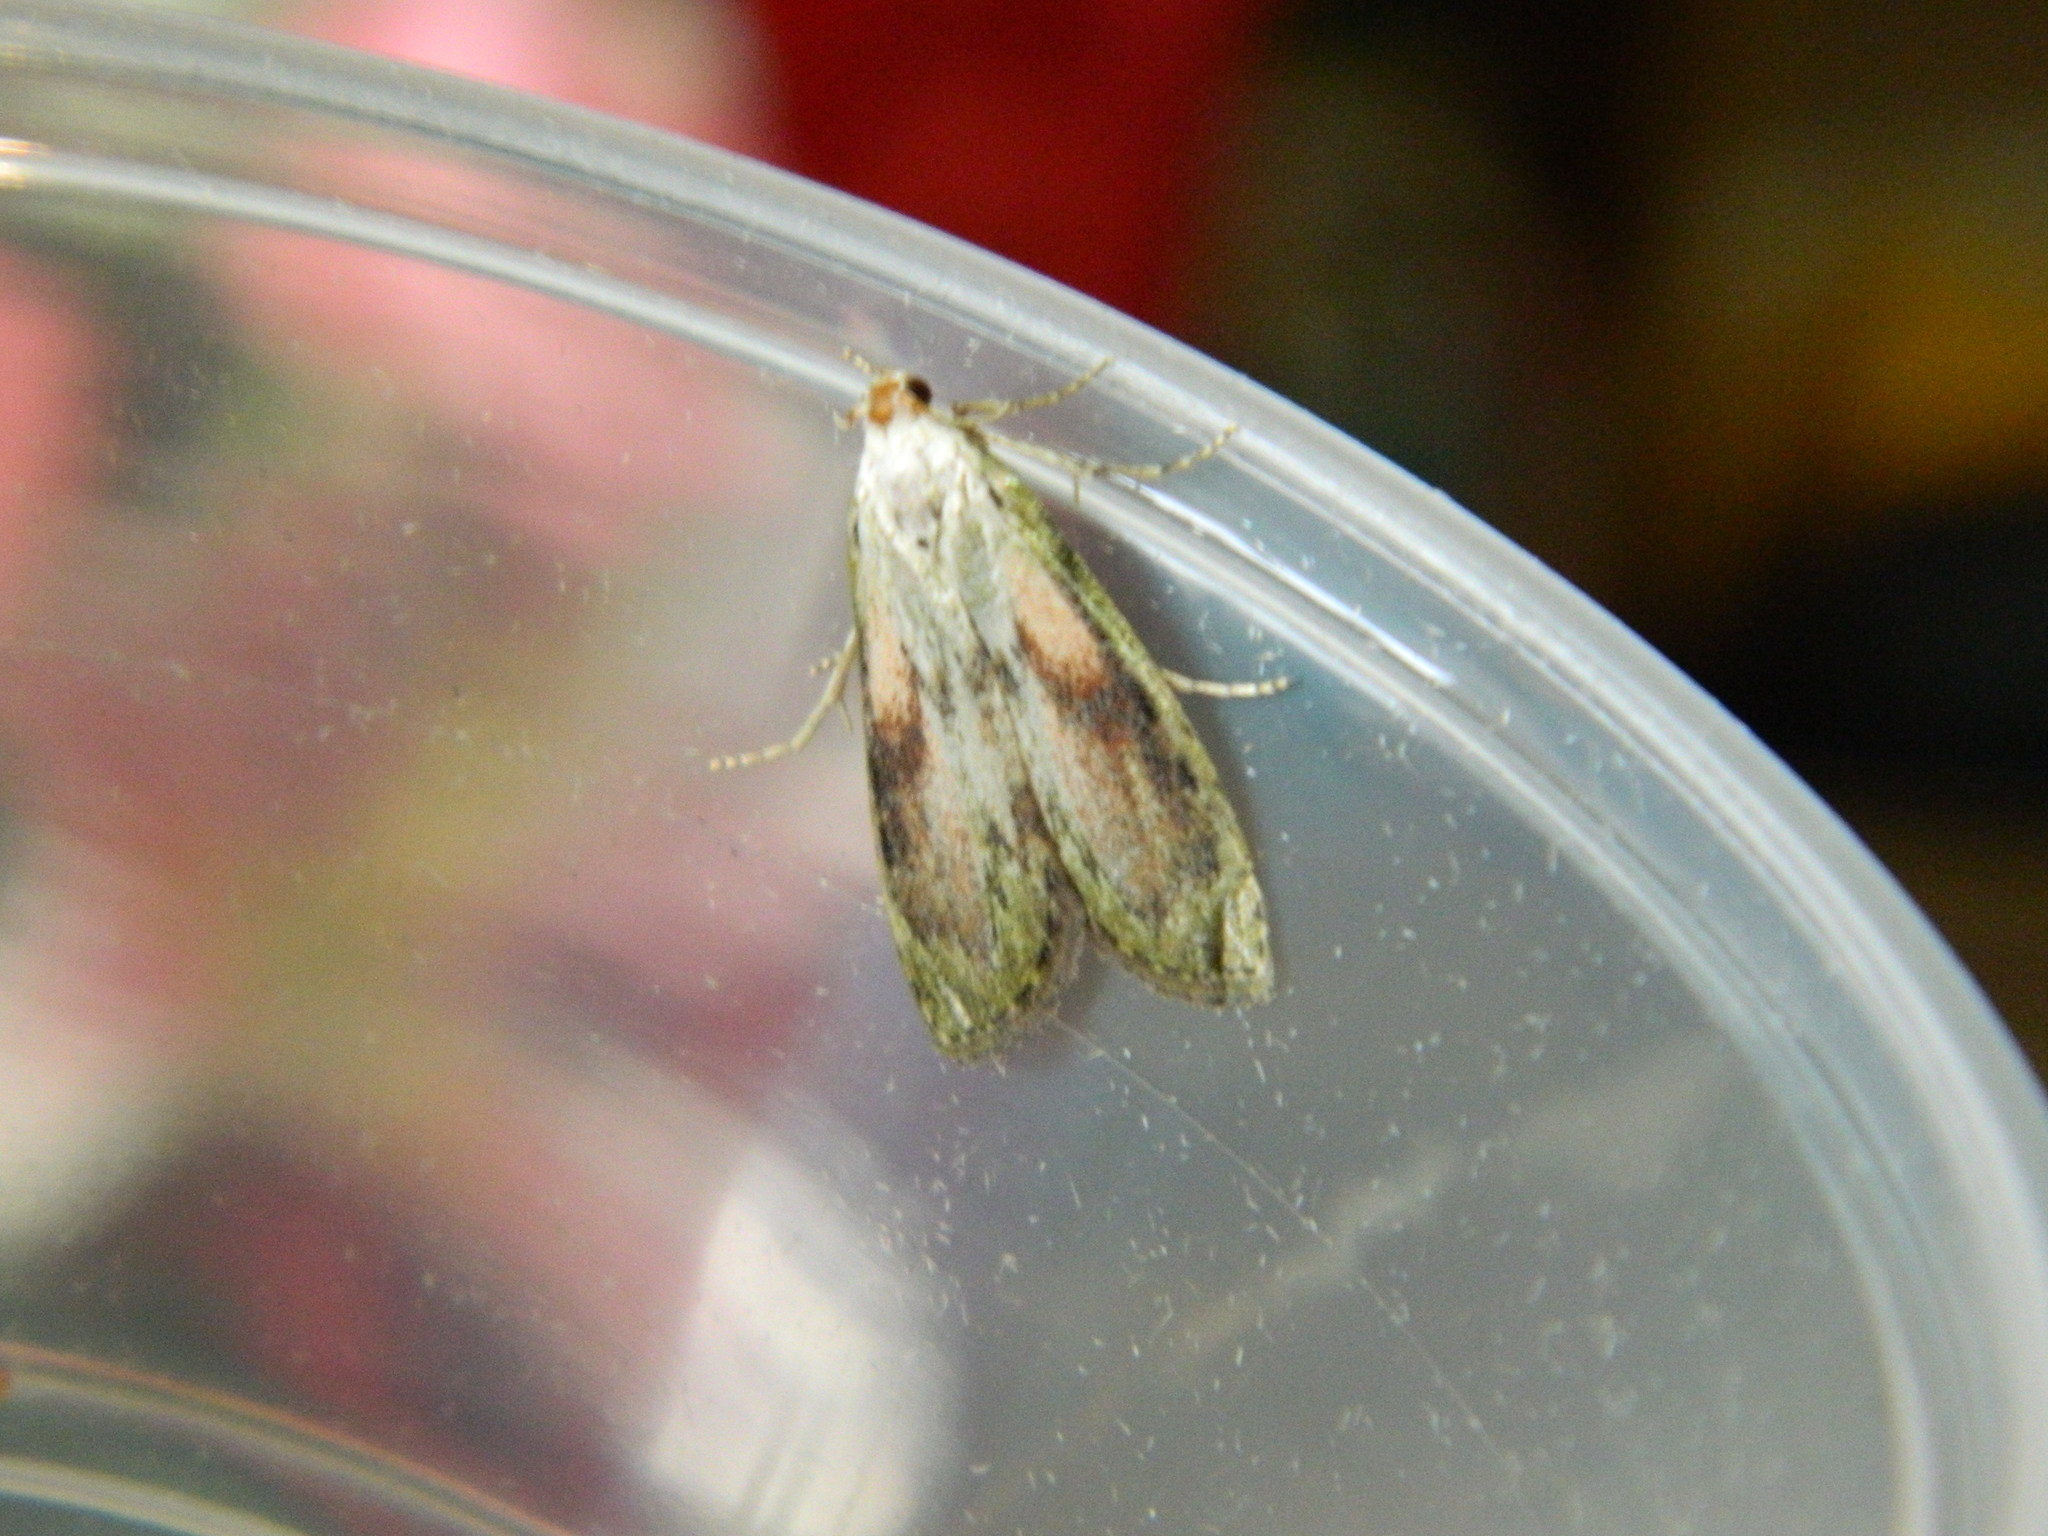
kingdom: Animalia
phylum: Arthropoda
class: Insecta
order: Lepidoptera
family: Pyralidae
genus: Aphomia
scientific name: Aphomia sociella
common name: Bee moth
